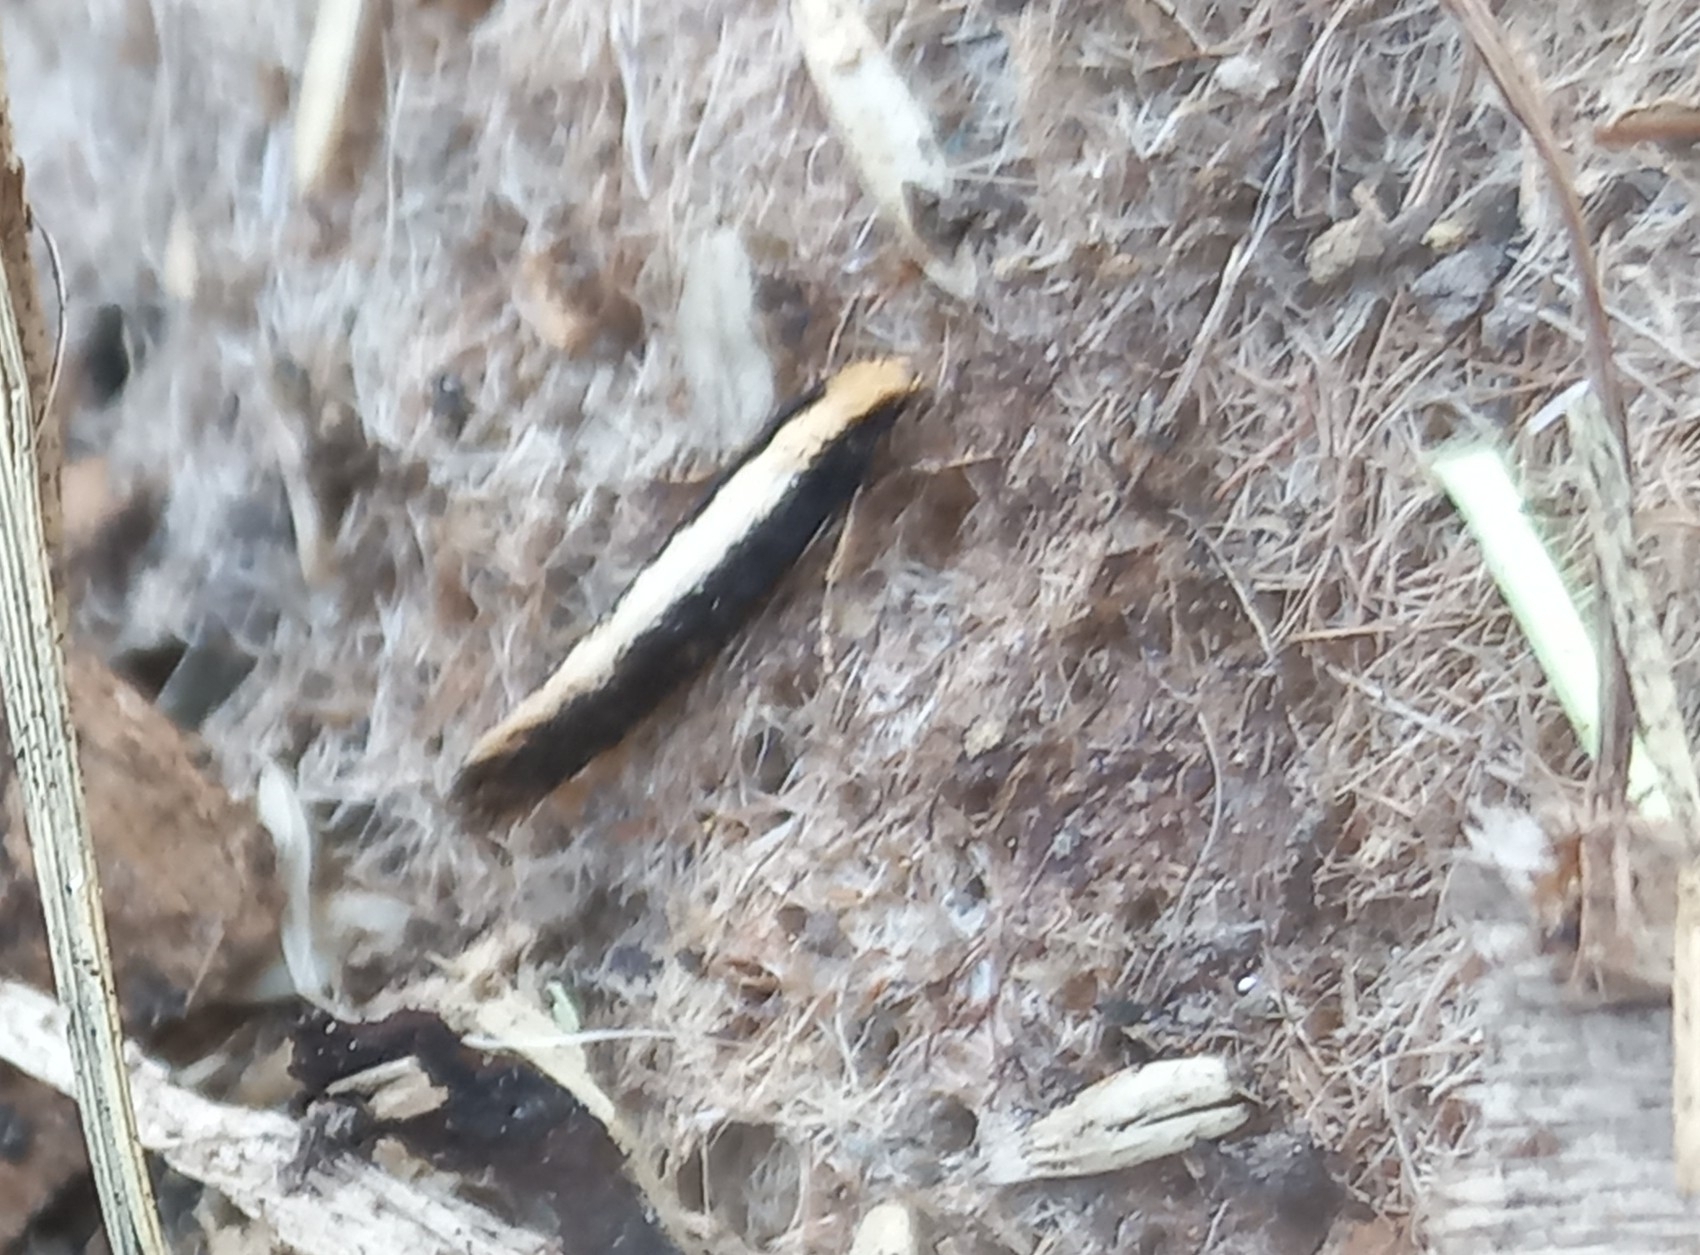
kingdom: Animalia
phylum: Arthropoda
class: Insecta
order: Lepidoptera
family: Tineidae
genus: Monopis
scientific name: Monopis ethelella
